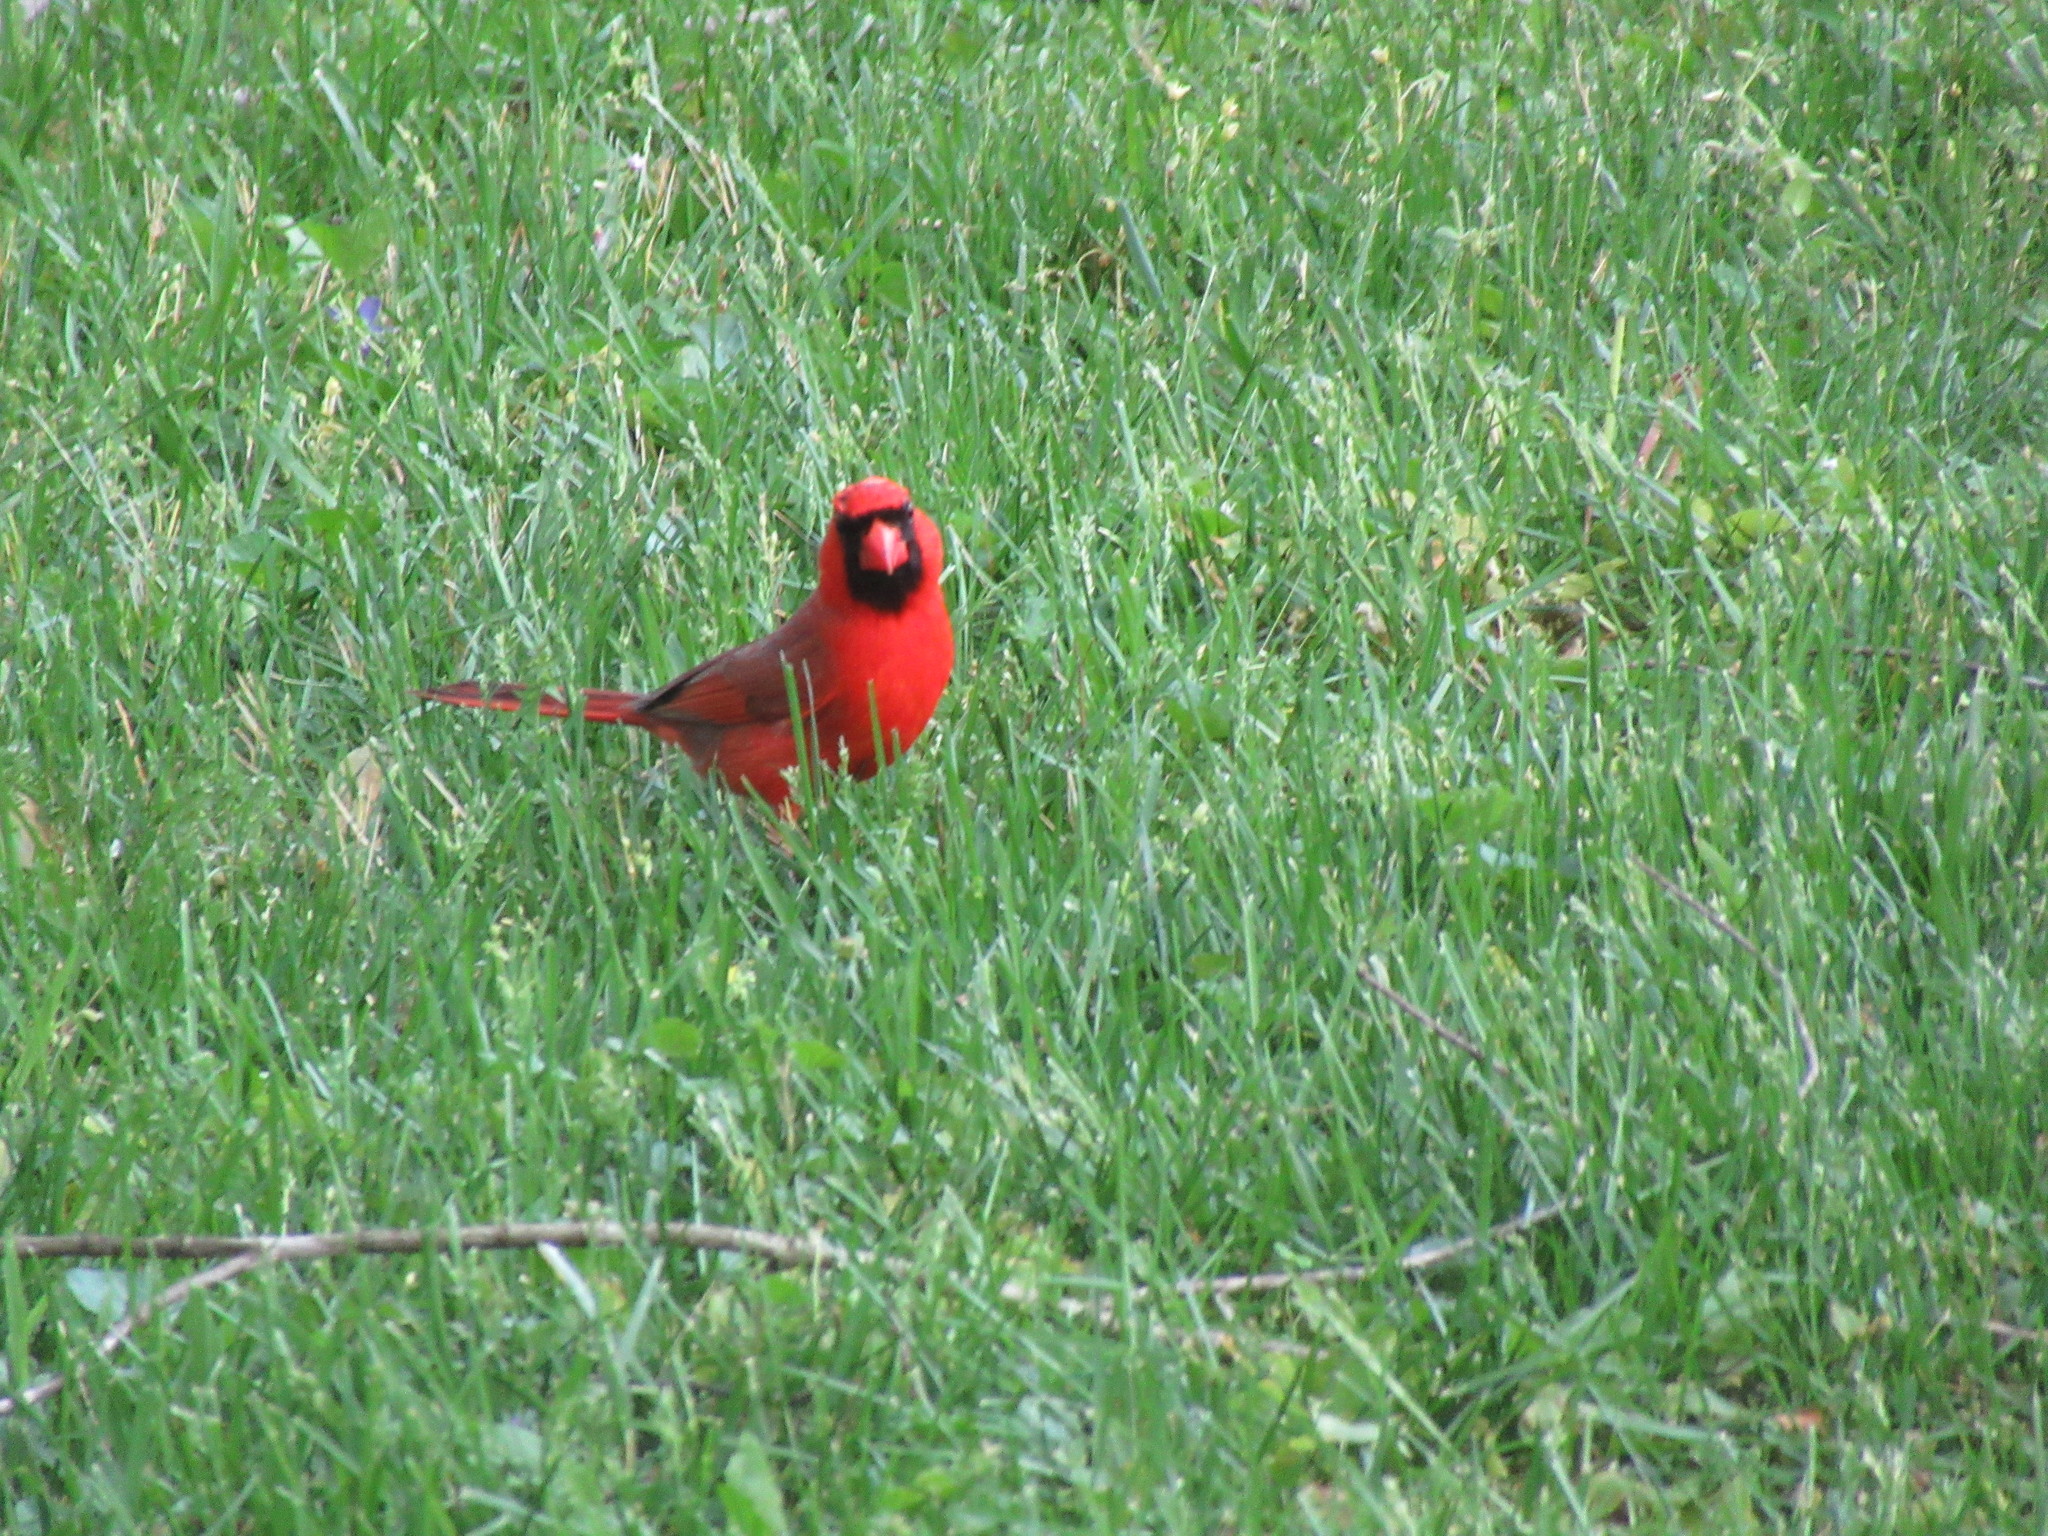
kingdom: Animalia
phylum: Chordata
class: Aves
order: Passeriformes
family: Cardinalidae
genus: Cardinalis
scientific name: Cardinalis cardinalis
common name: Northern cardinal
